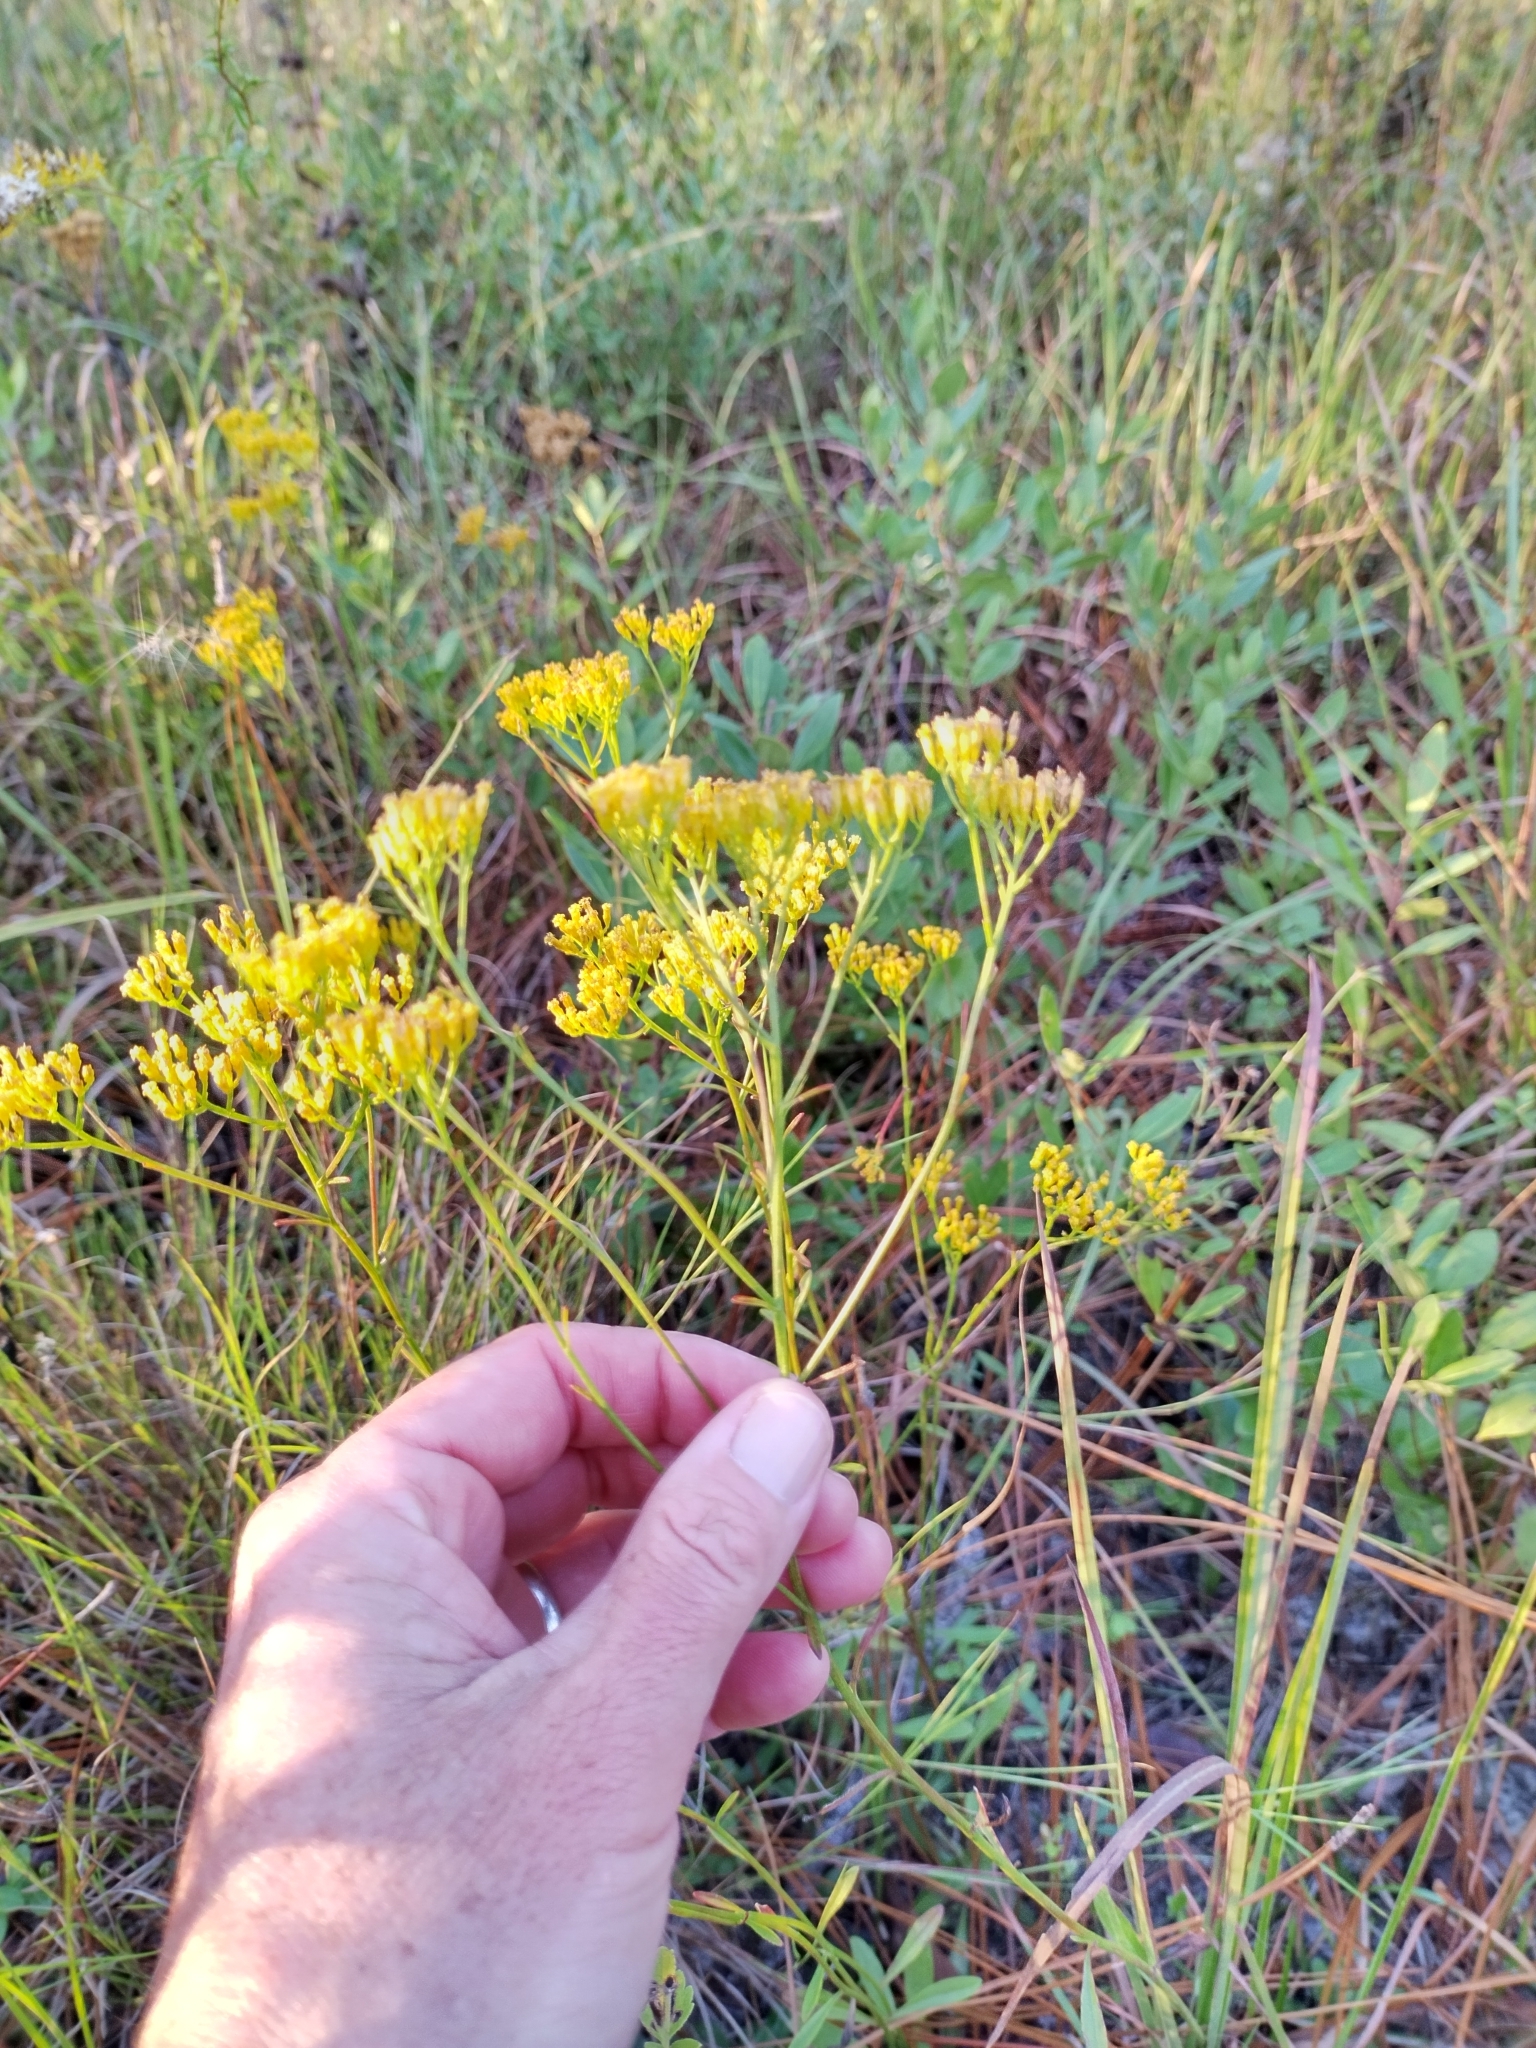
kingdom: Plantae
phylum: Tracheophyta
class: Magnoliopsida
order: Asterales
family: Asteraceae
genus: Bigelowia
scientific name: Bigelowia nudata
